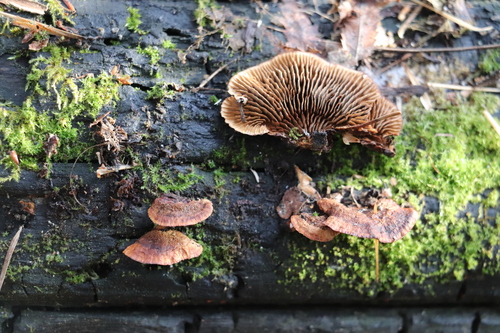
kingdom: Fungi
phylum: Basidiomycota
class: Agaricomycetes
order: Gloeophyllales
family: Gloeophyllaceae
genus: Gloeophyllum
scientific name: Gloeophyllum abietinum
